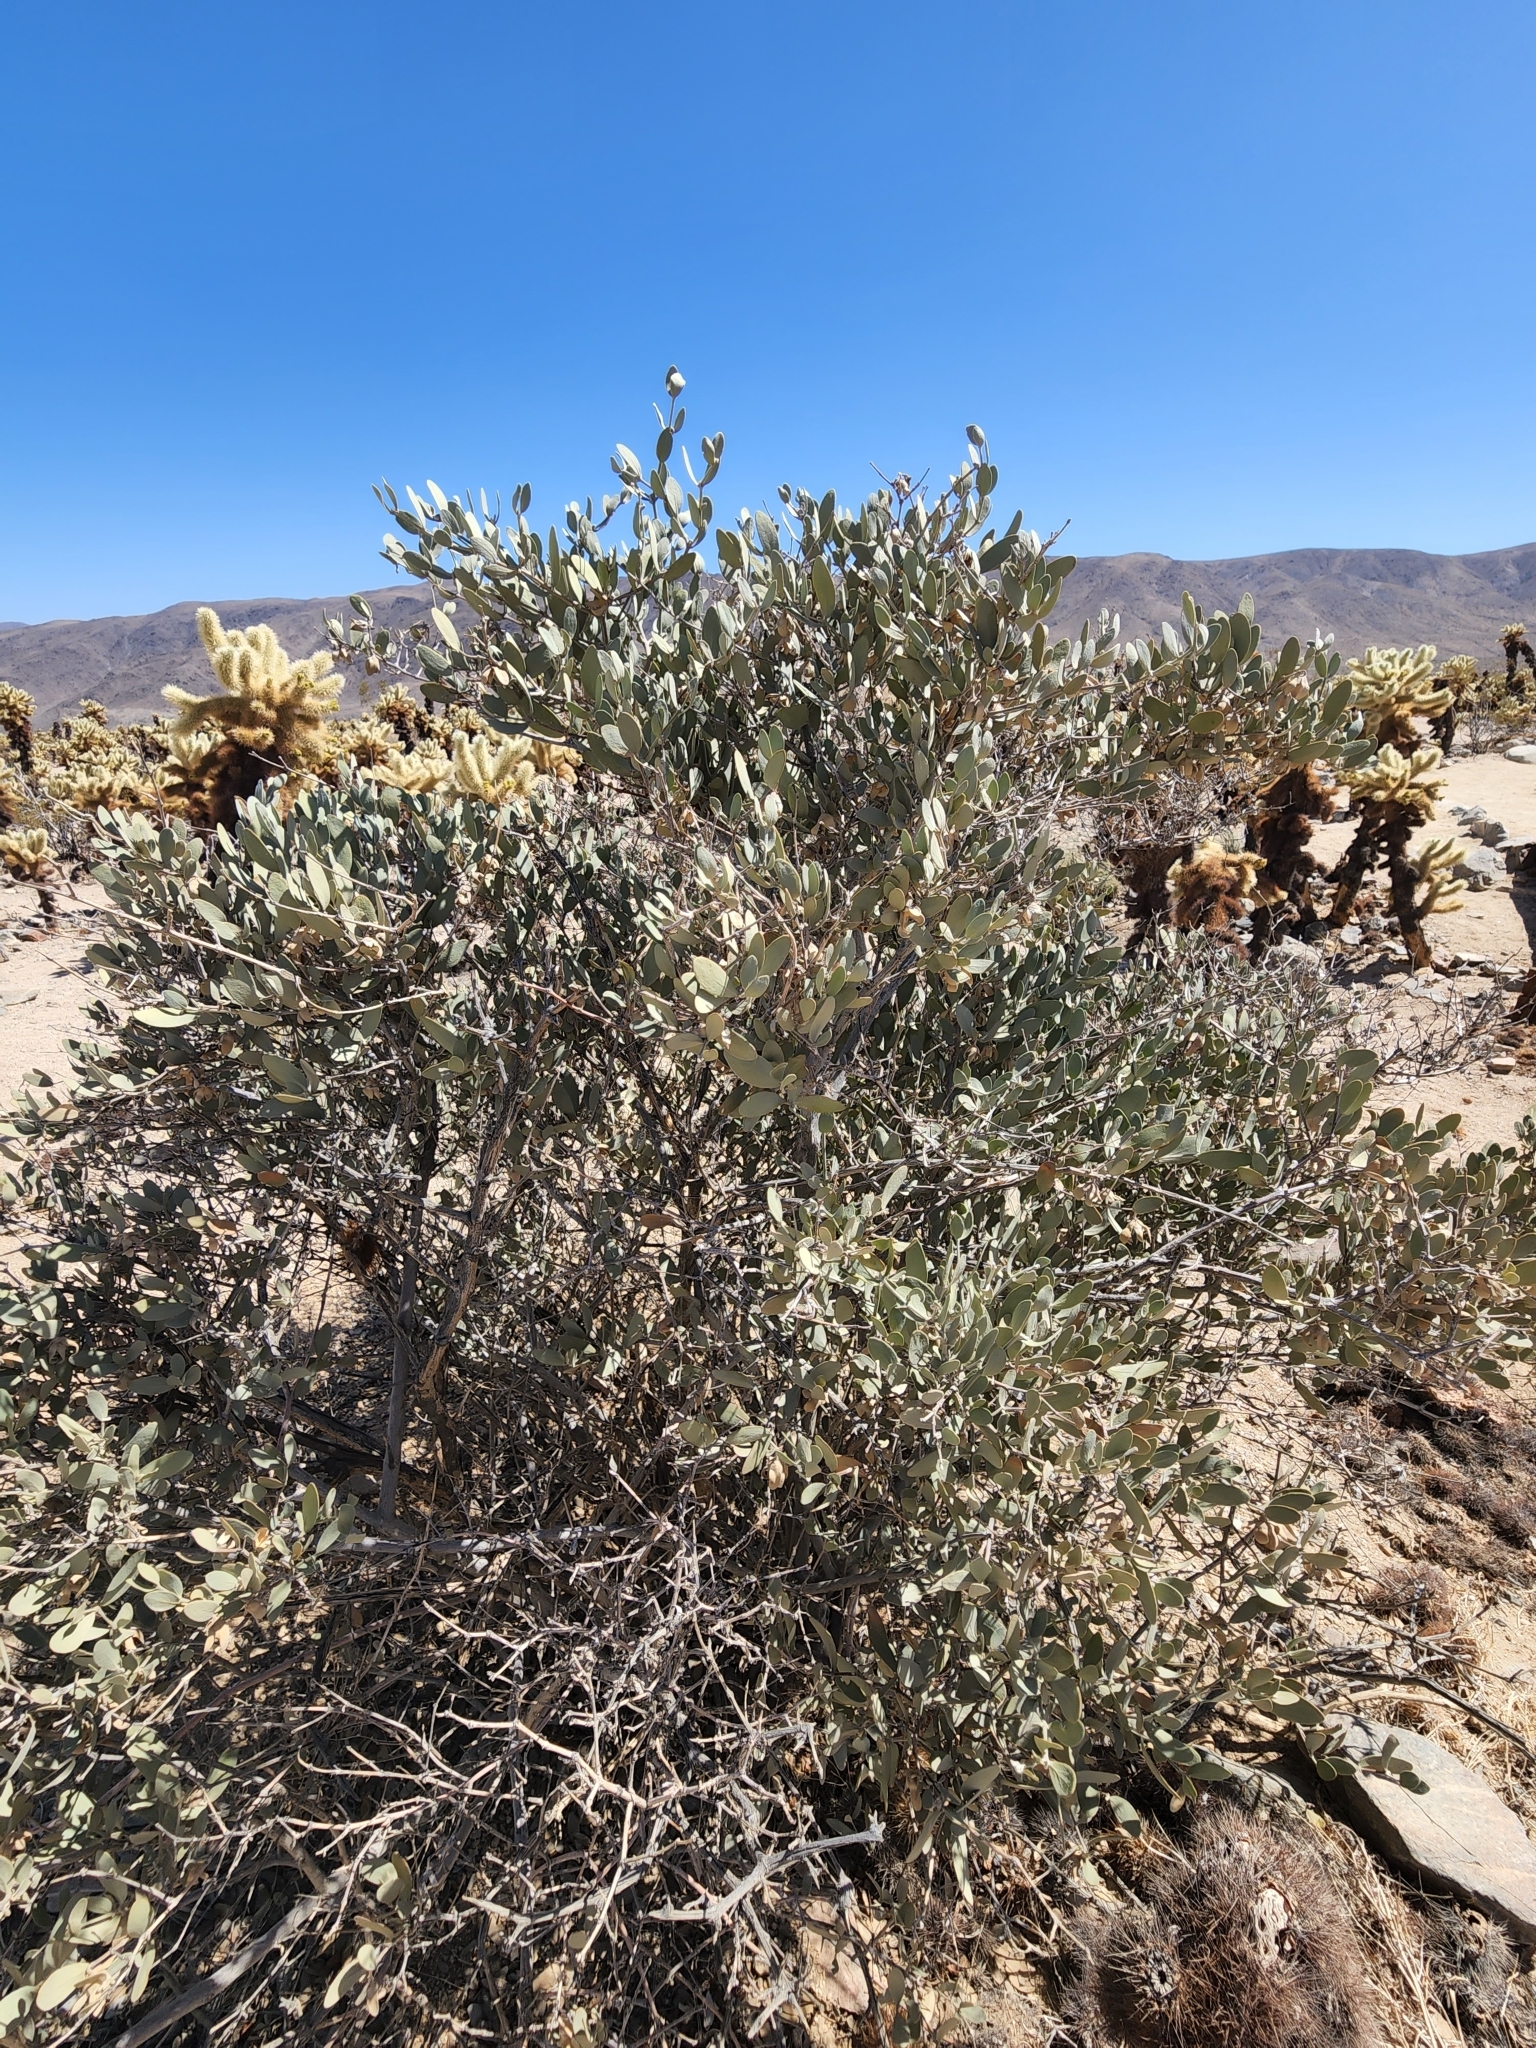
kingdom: Plantae
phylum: Tracheophyta
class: Magnoliopsida
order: Caryophyllales
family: Simmondsiaceae
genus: Simmondsia
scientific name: Simmondsia chinensis
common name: Jojoba
